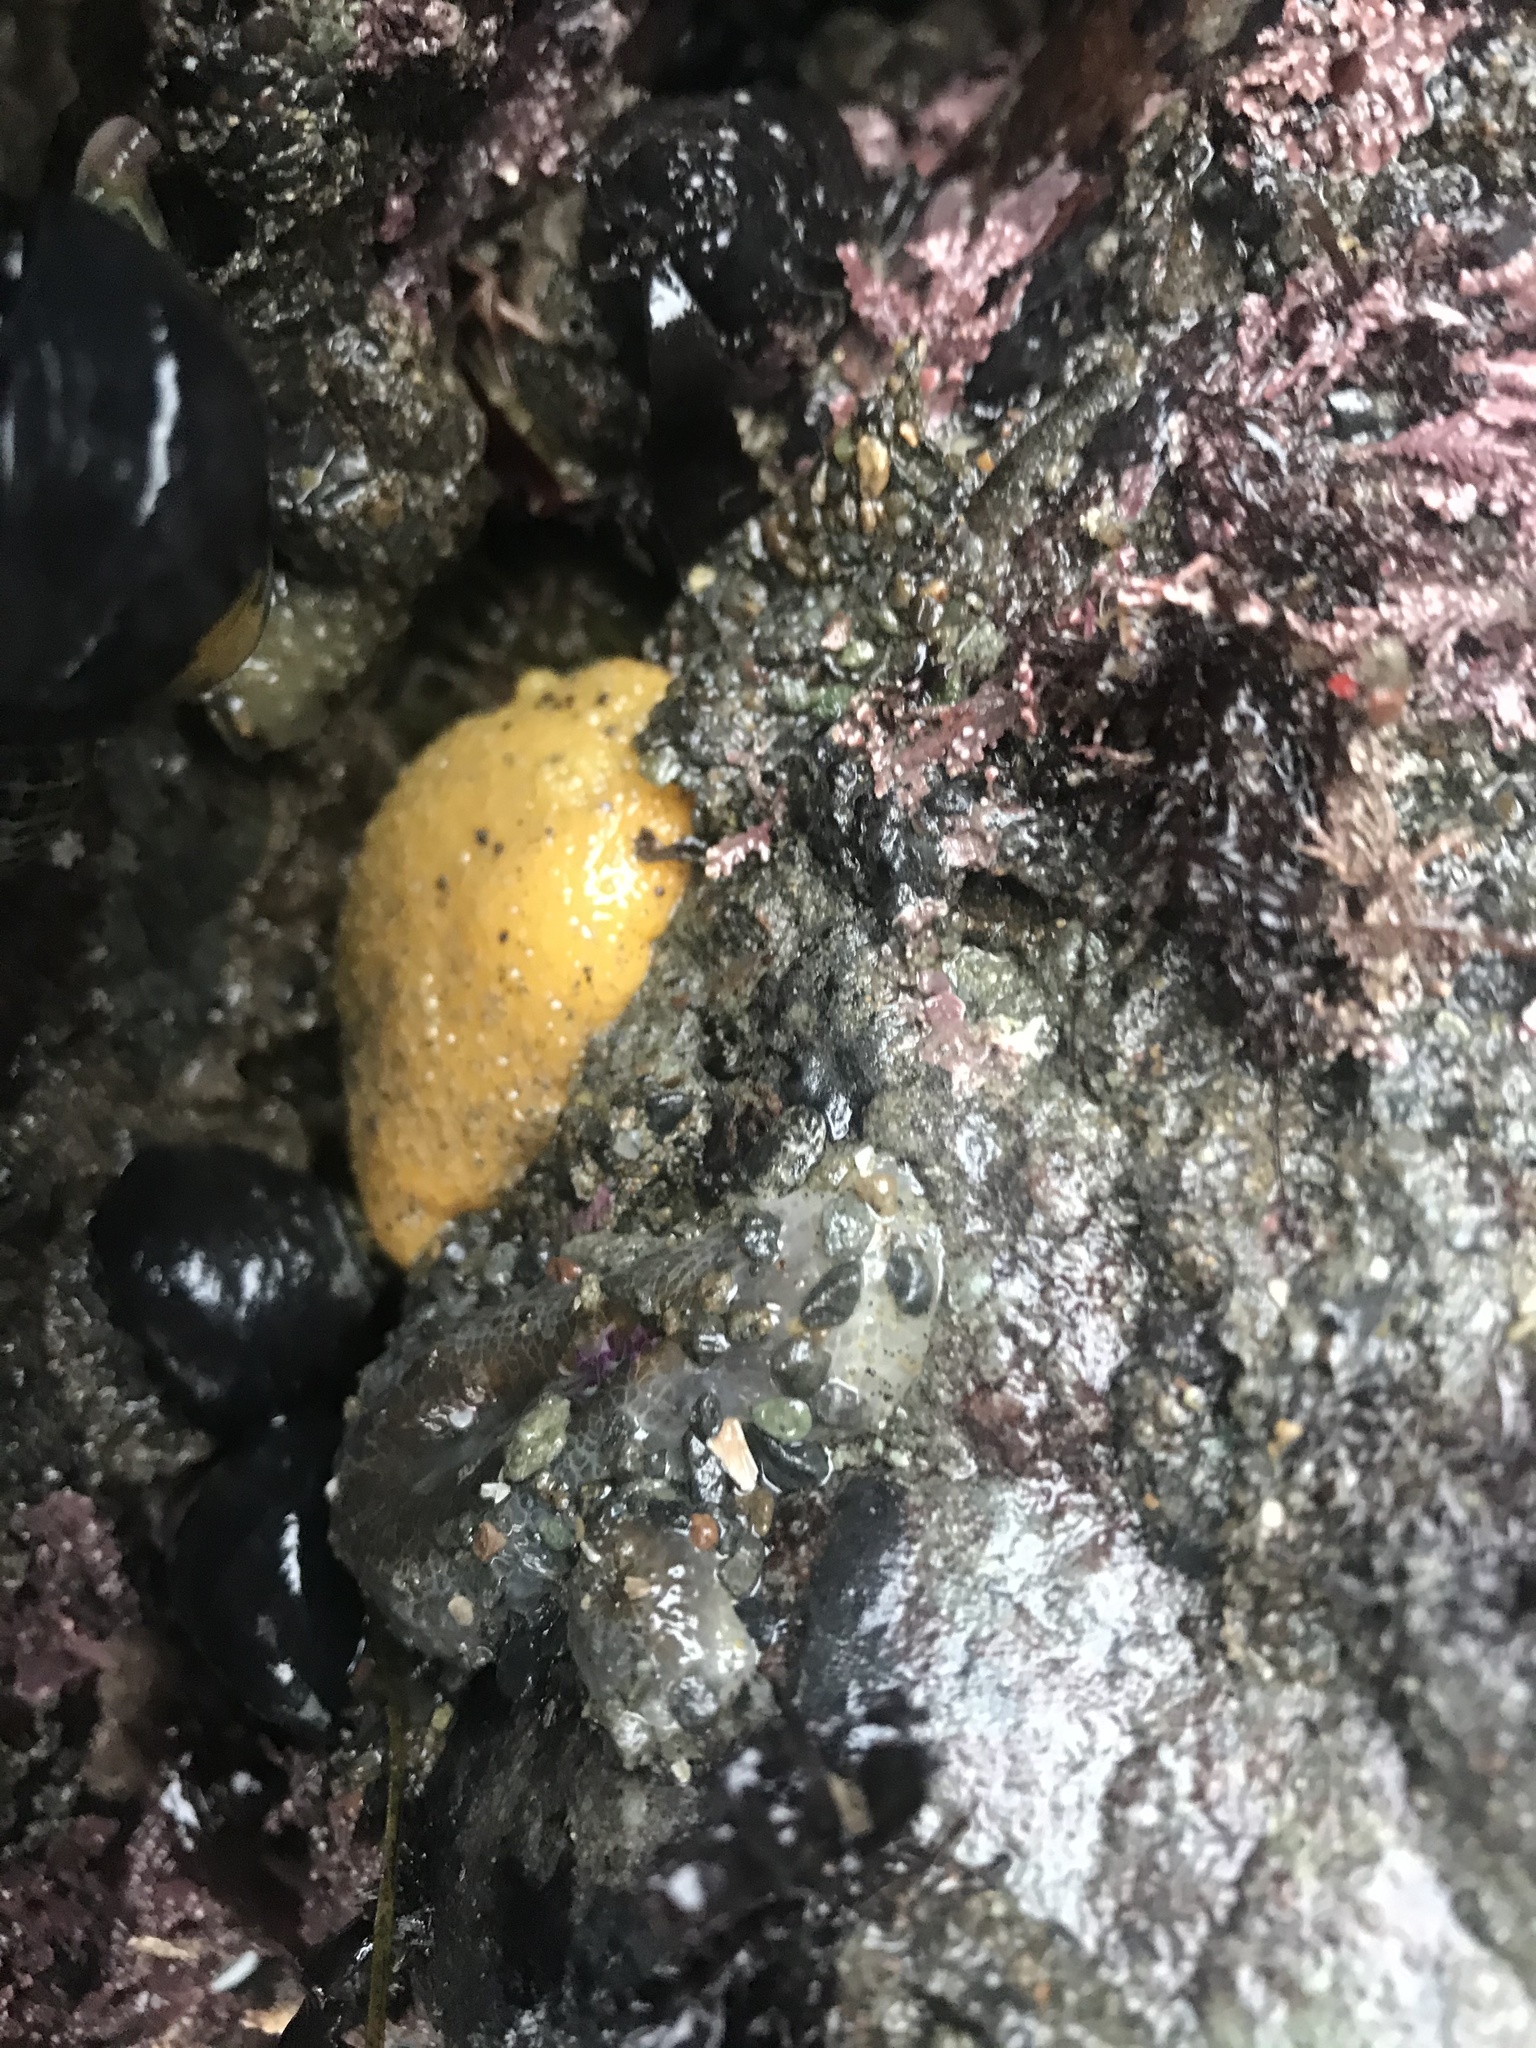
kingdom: Animalia
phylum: Mollusca
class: Gastropoda
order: Nudibranchia
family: Dorididae
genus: Doris
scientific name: Doris montereyensis
